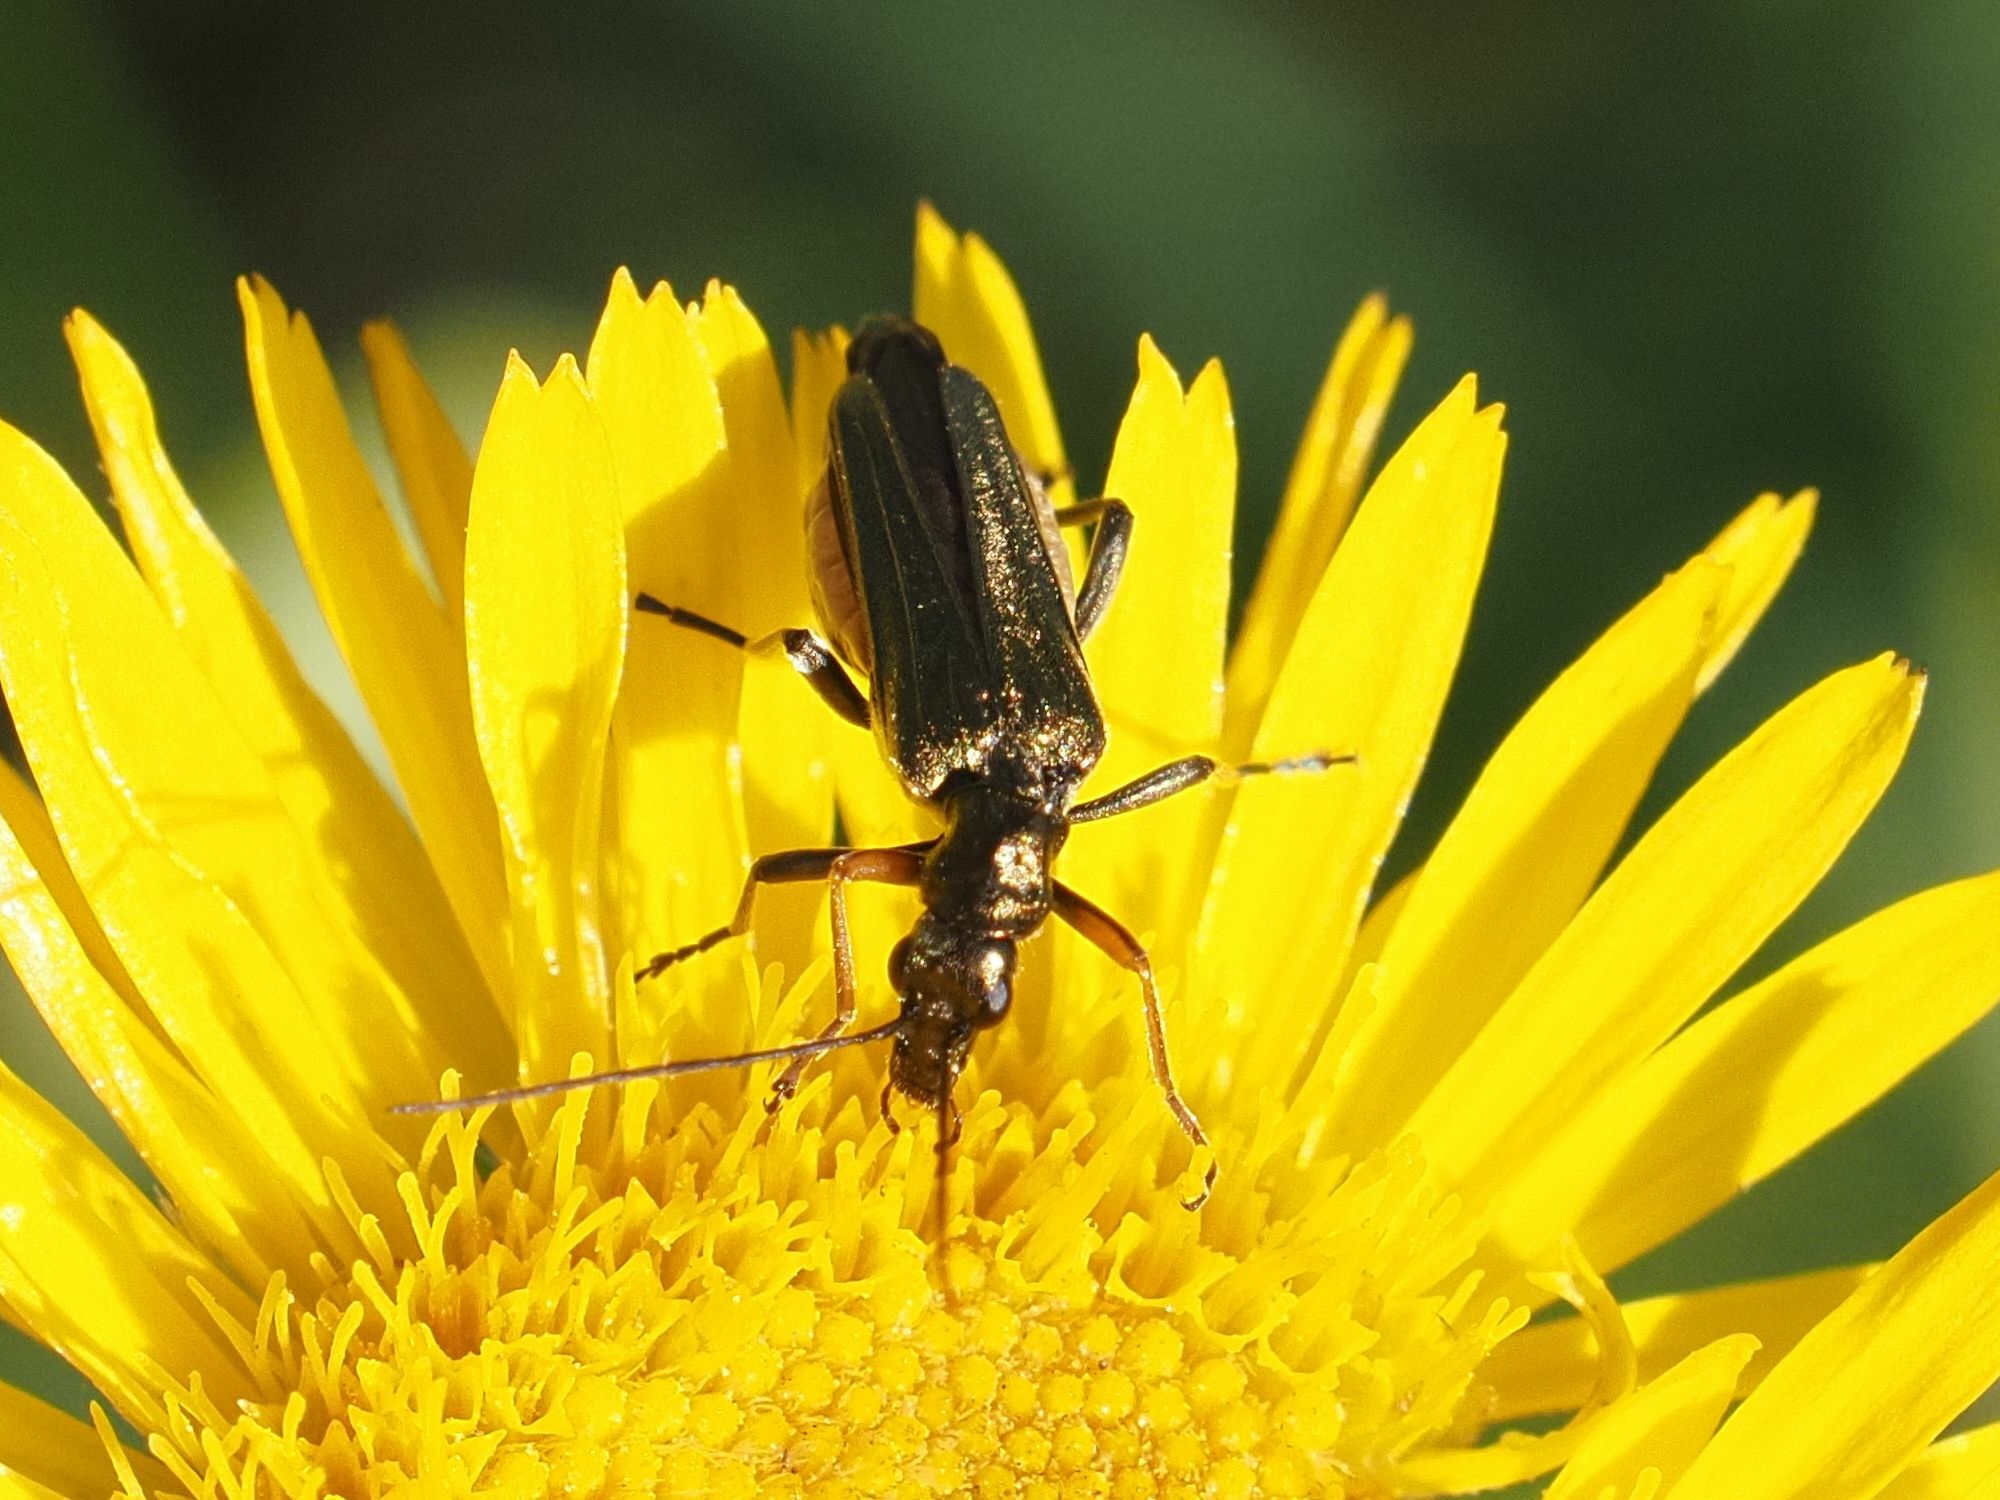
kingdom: Animalia
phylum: Arthropoda
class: Insecta
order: Coleoptera
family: Oedemeridae
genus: Oedemera
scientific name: Oedemera flavipes
